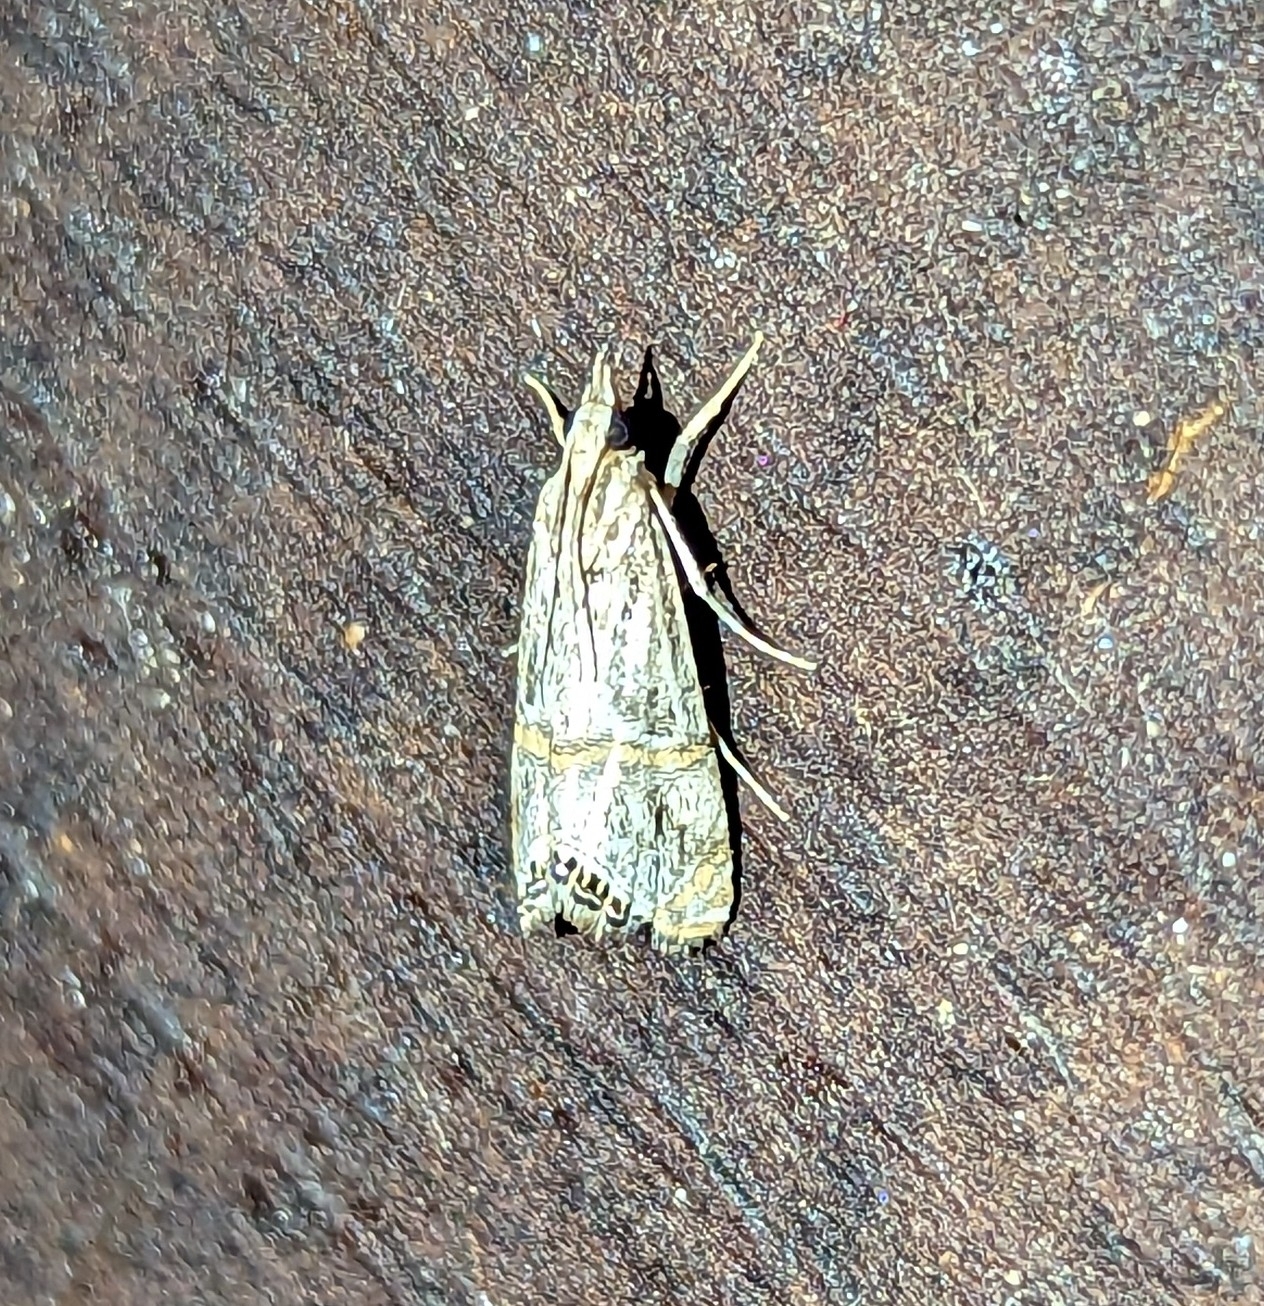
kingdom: Animalia
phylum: Arthropoda
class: Insecta
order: Lepidoptera
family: Crambidae
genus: Euchromius
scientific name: Euchromius discopis
